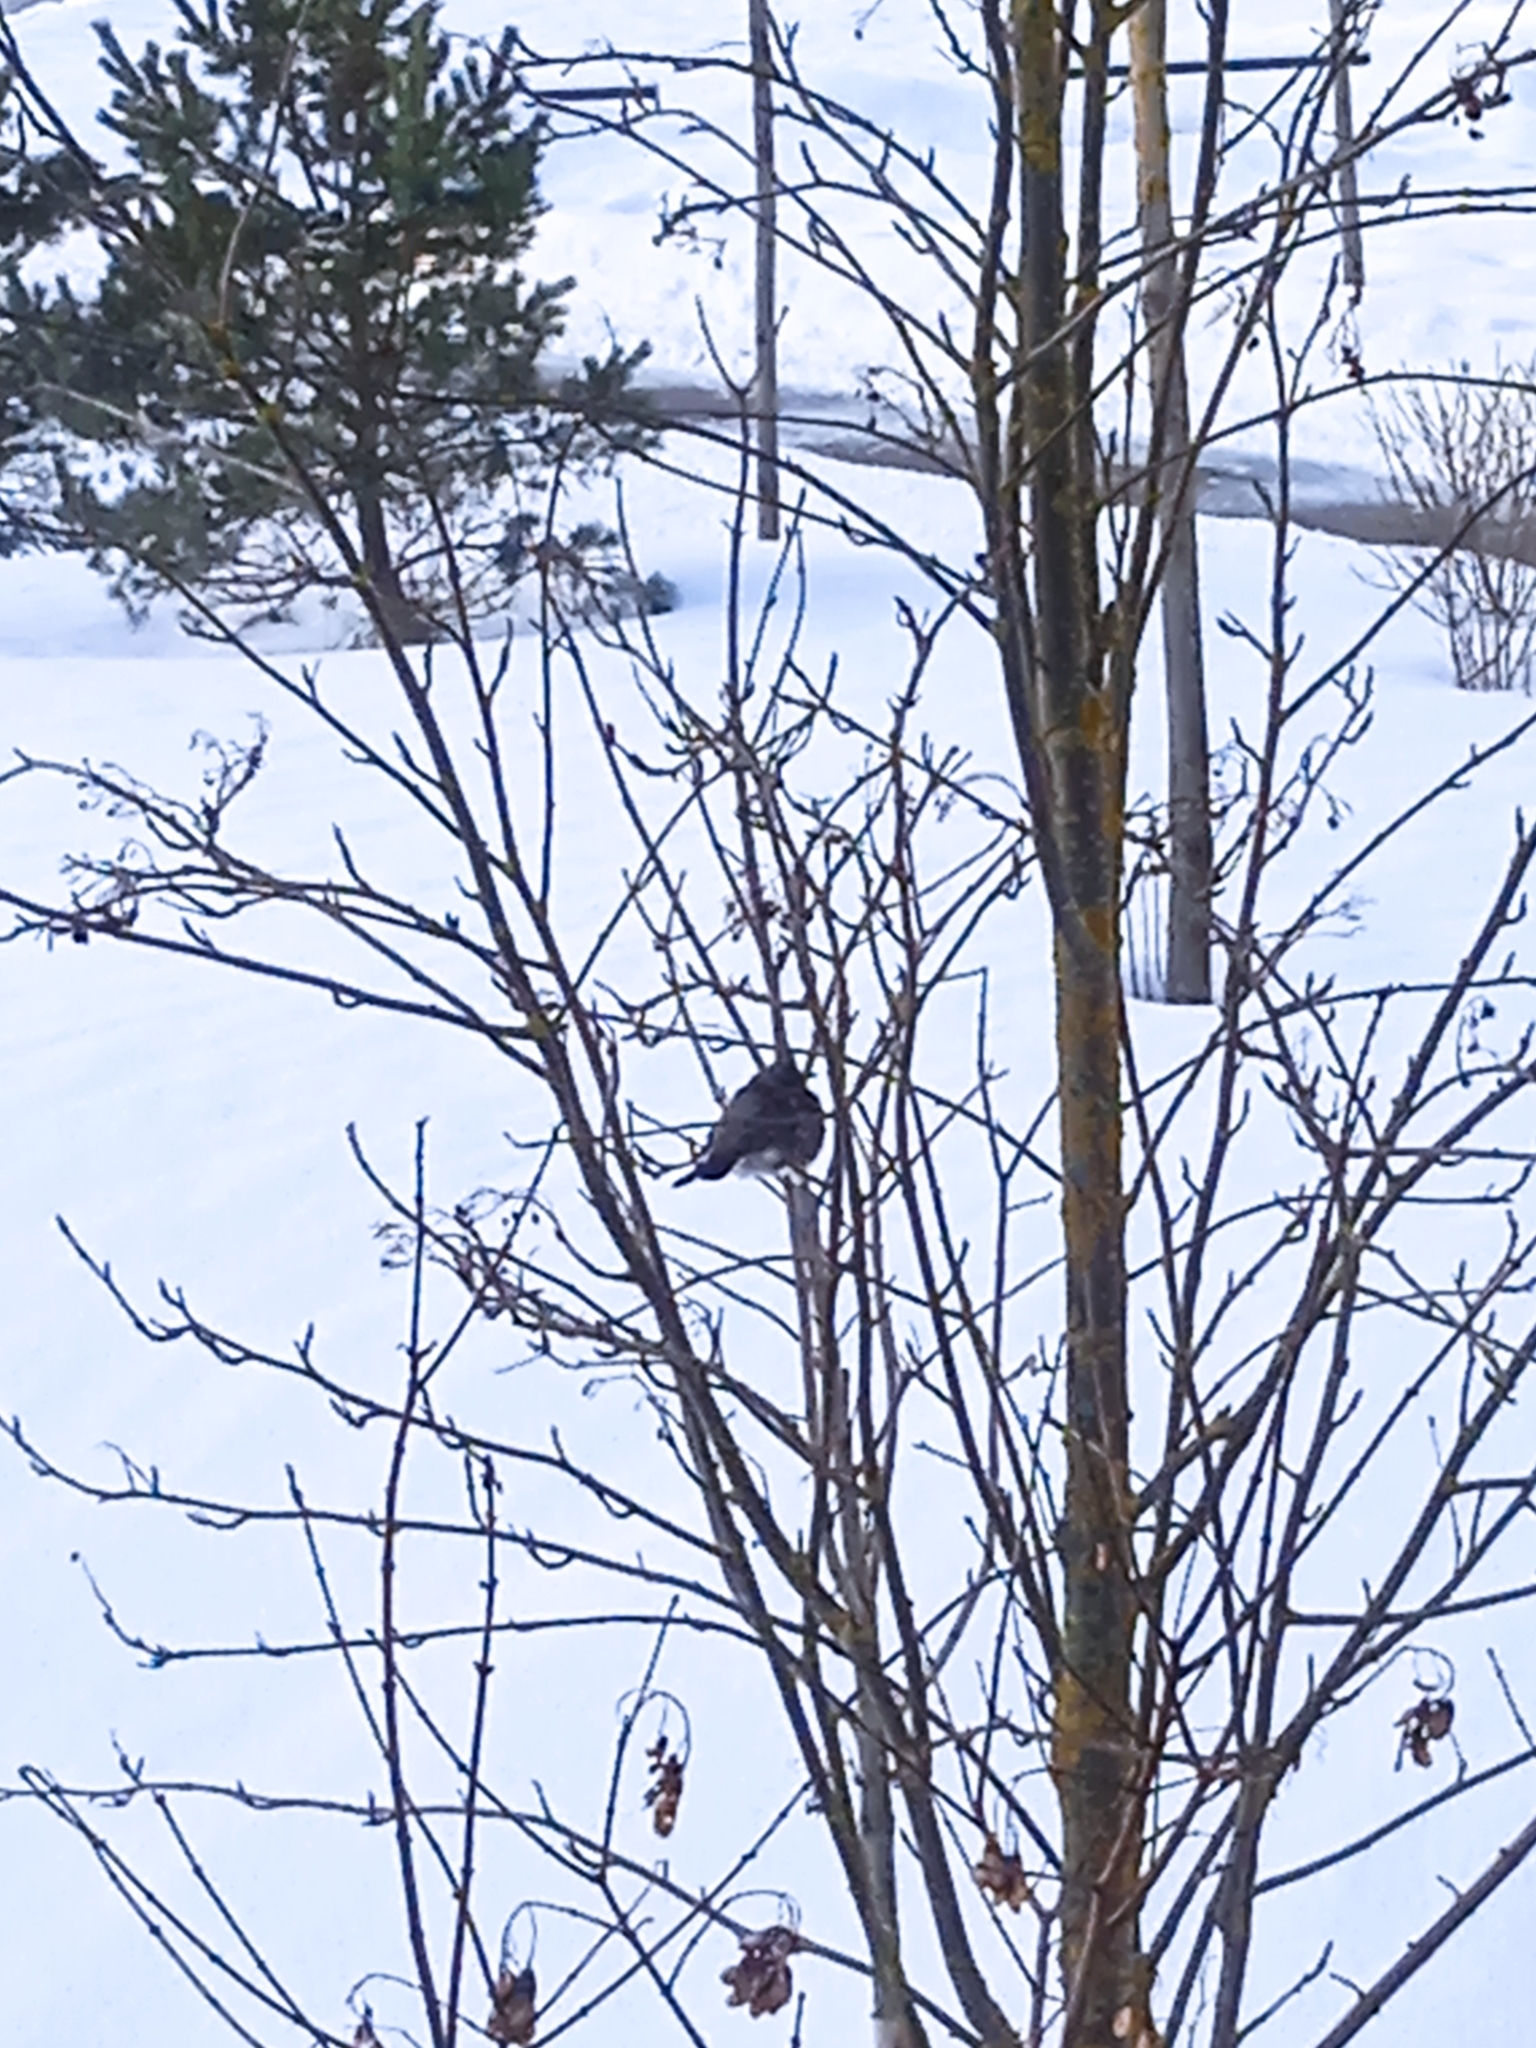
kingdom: Animalia
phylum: Chordata
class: Aves
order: Passeriformes
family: Turdidae
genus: Turdus
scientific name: Turdus pilaris
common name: Fieldfare
